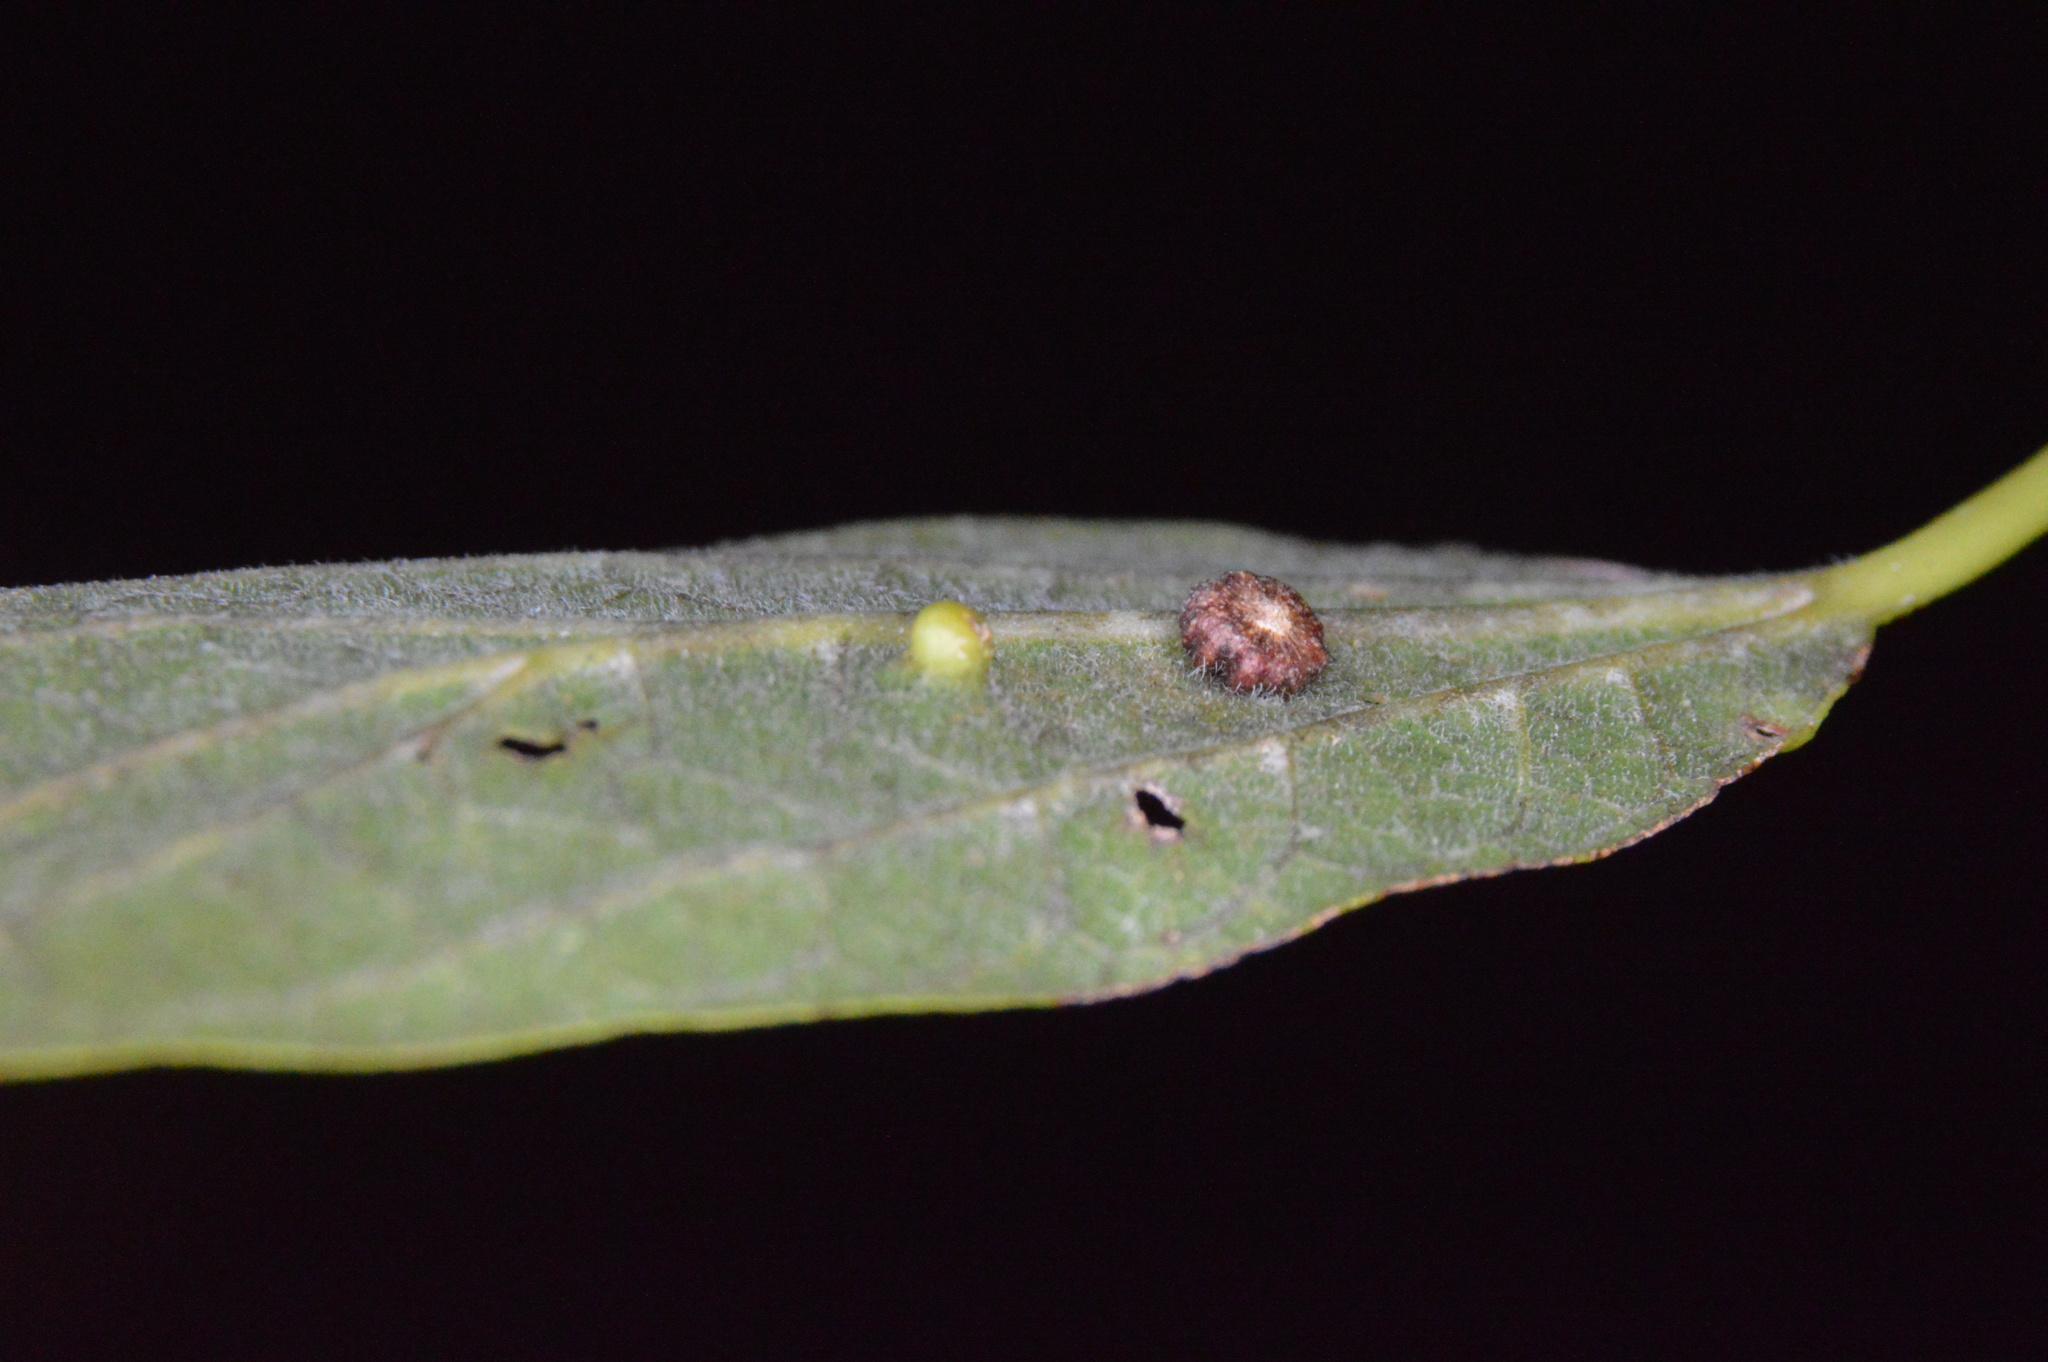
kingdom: Animalia
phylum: Arthropoda
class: Insecta
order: Diptera
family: Cecidomyiidae
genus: Celticecis
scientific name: Celticecis capsularis
